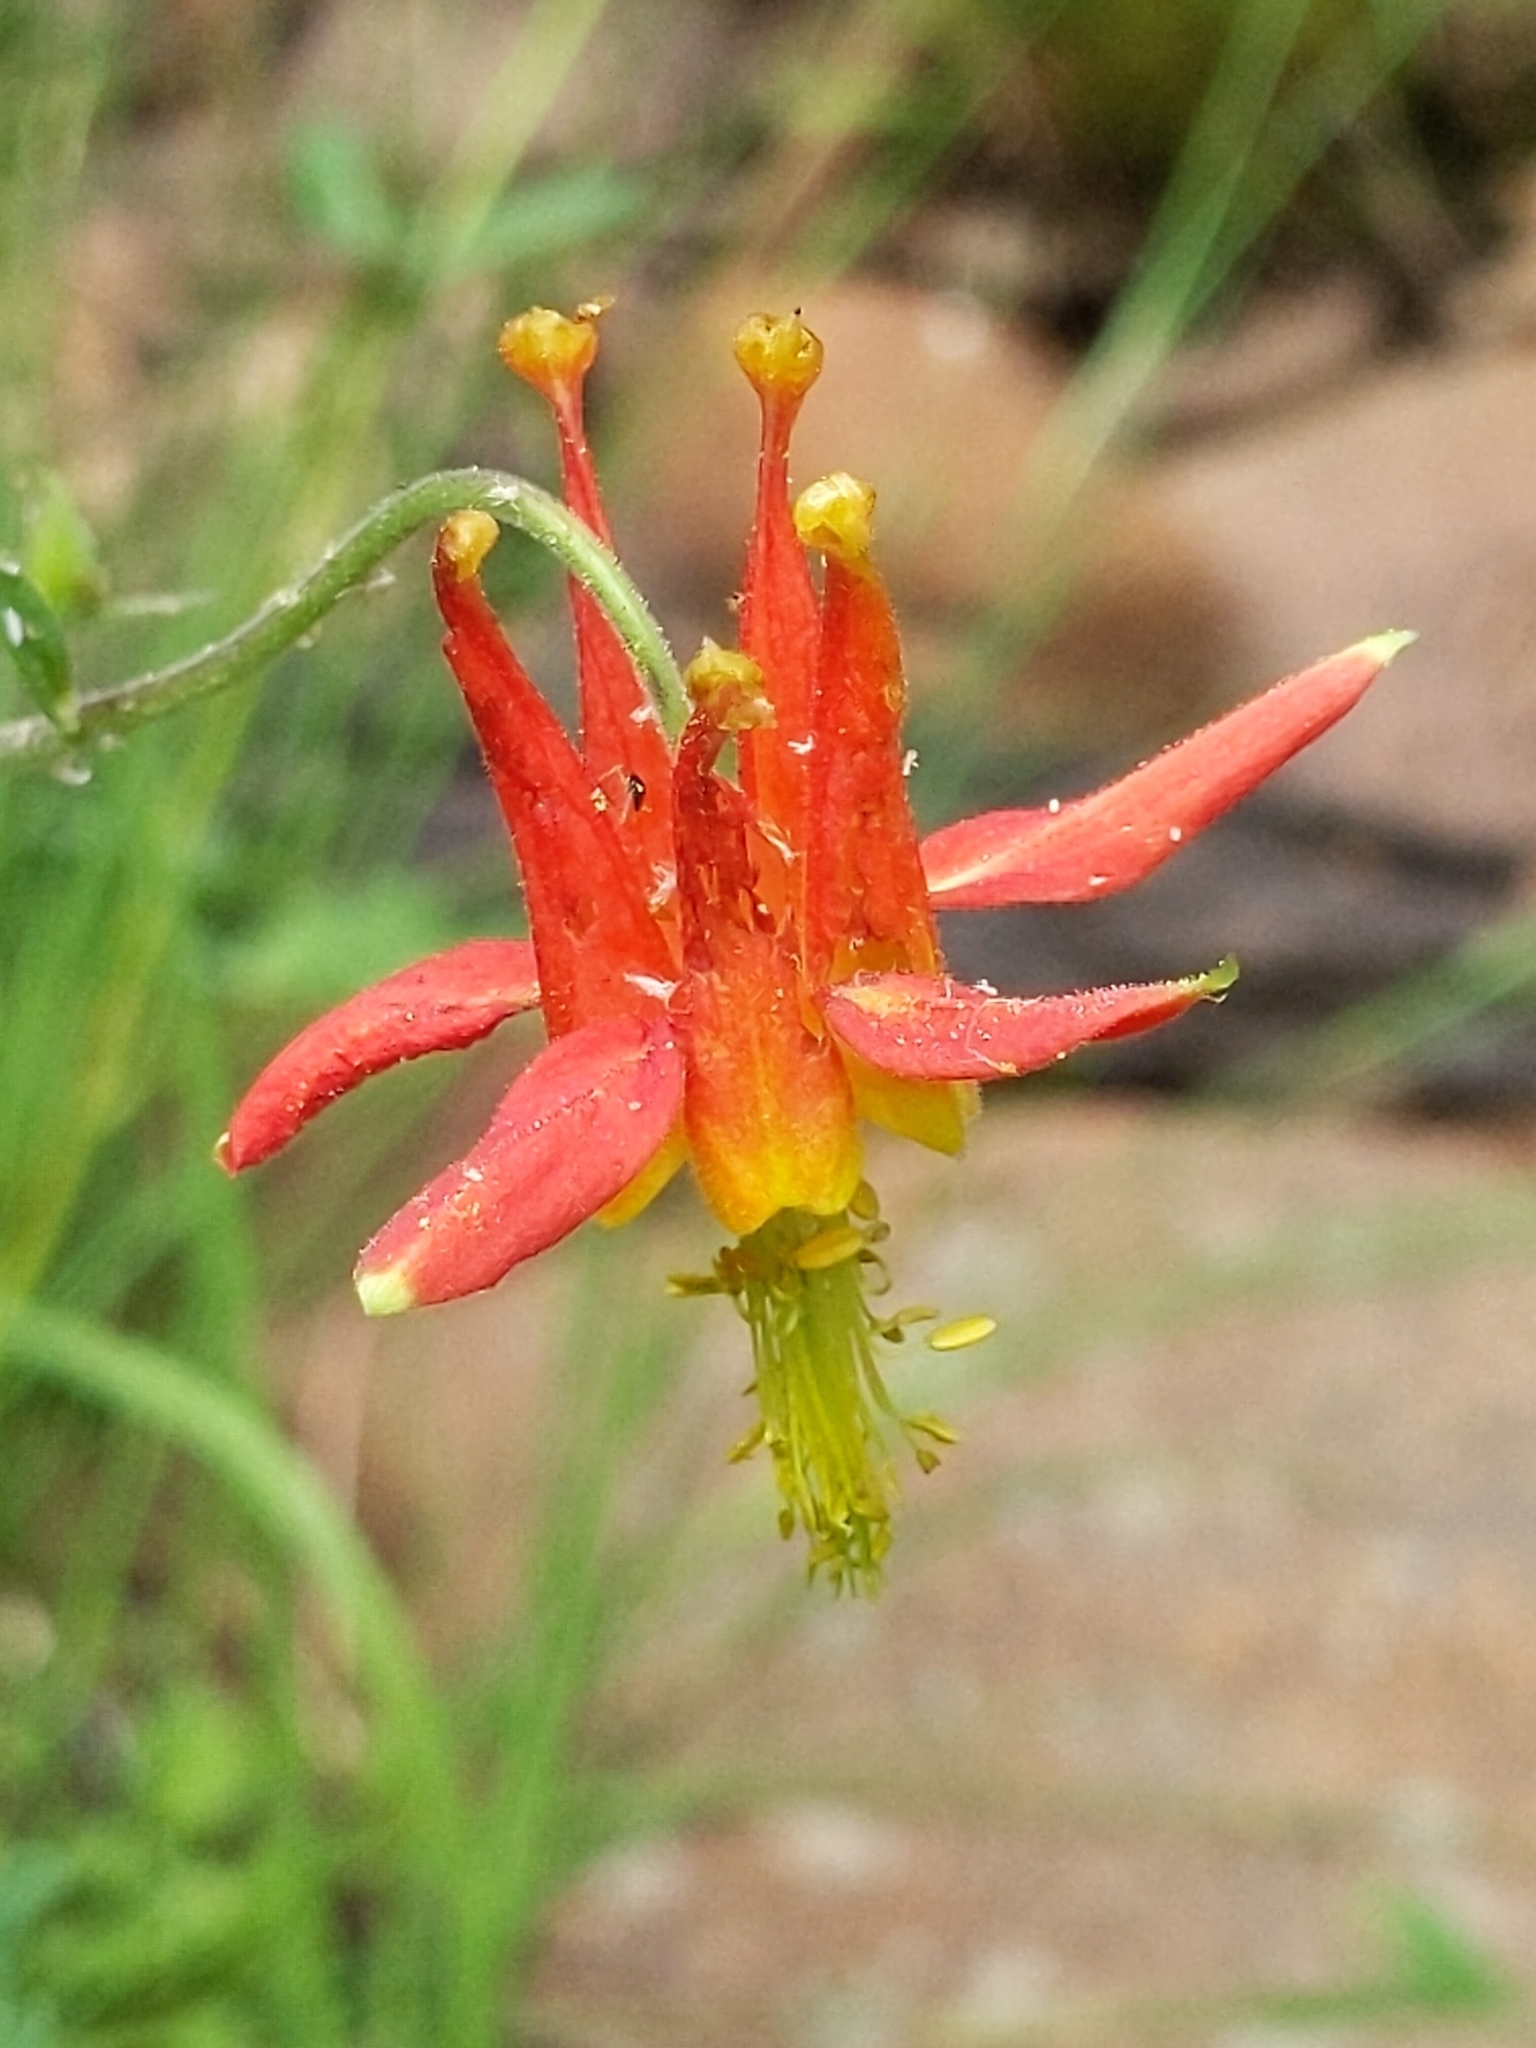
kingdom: Plantae
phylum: Tracheophyta
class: Magnoliopsida
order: Ranunculales
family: Ranunculaceae
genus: Aquilegia
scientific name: Aquilegia formosa
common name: Sitka columbine
